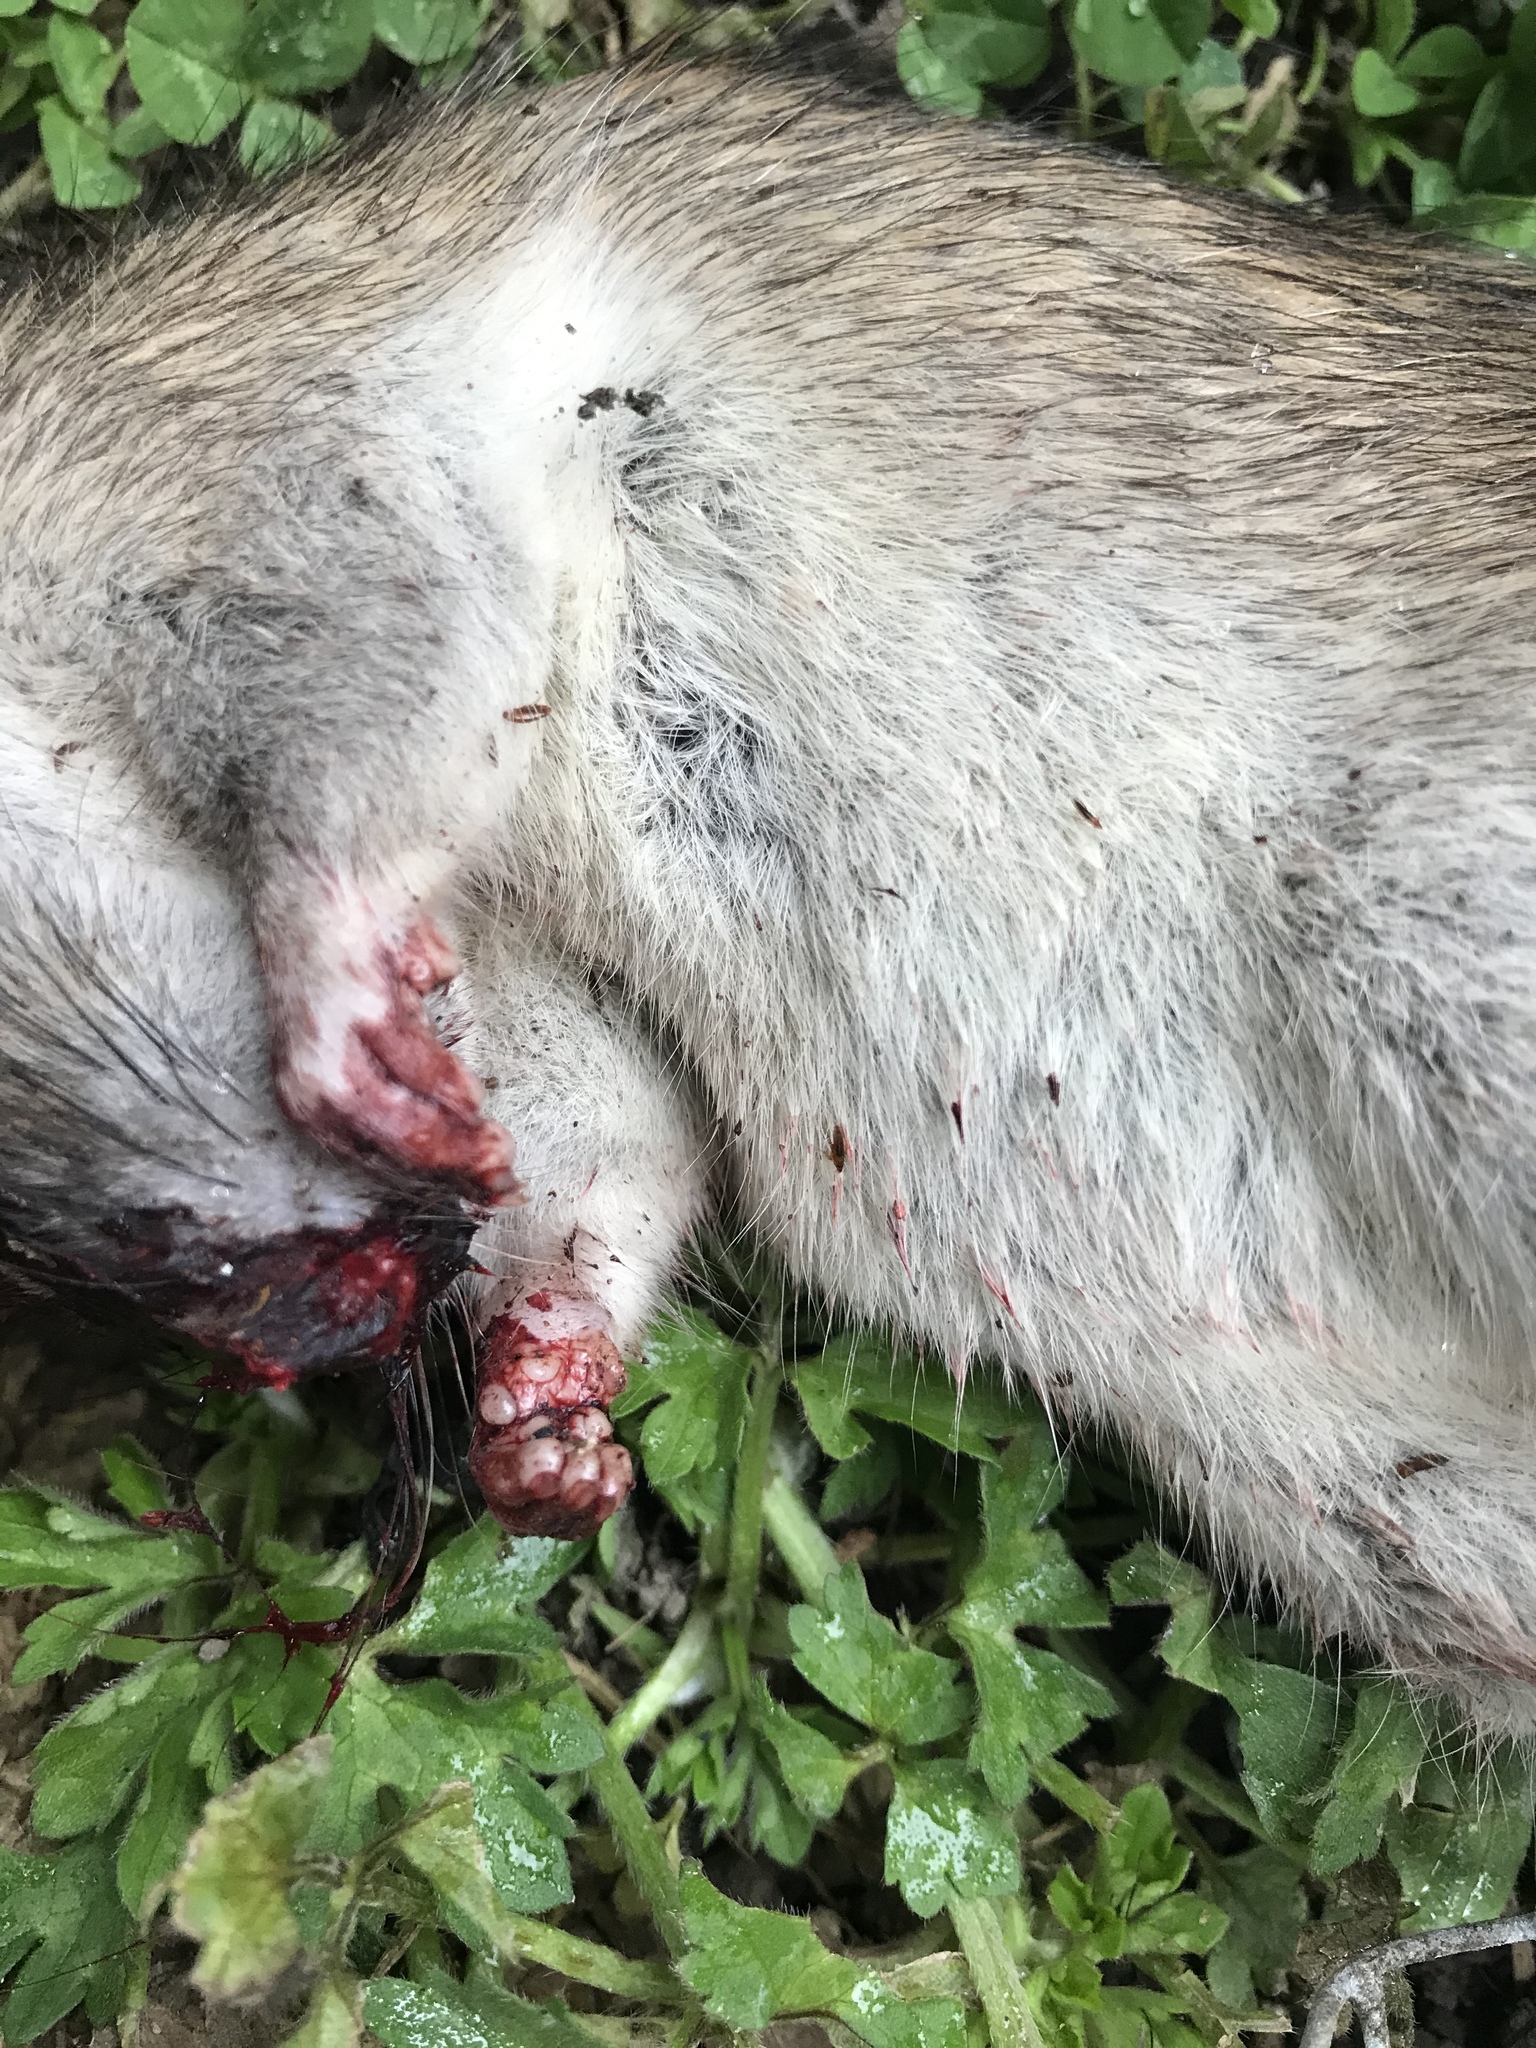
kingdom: Animalia
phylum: Chordata
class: Mammalia
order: Rodentia
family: Muridae
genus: Rattus
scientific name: Rattus norvegicus
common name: Brown rat
